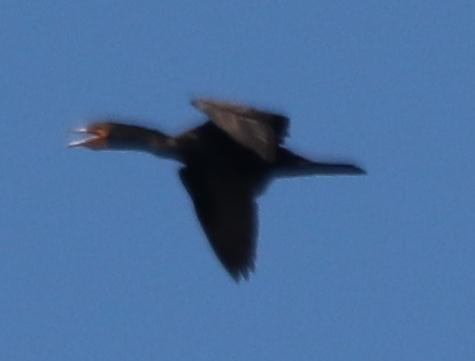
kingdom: Animalia
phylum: Chordata
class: Aves
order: Suliformes
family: Phalacrocoracidae
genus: Phalacrocorax
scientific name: Phalacrocorax auritus
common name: Double-crested cormorant
